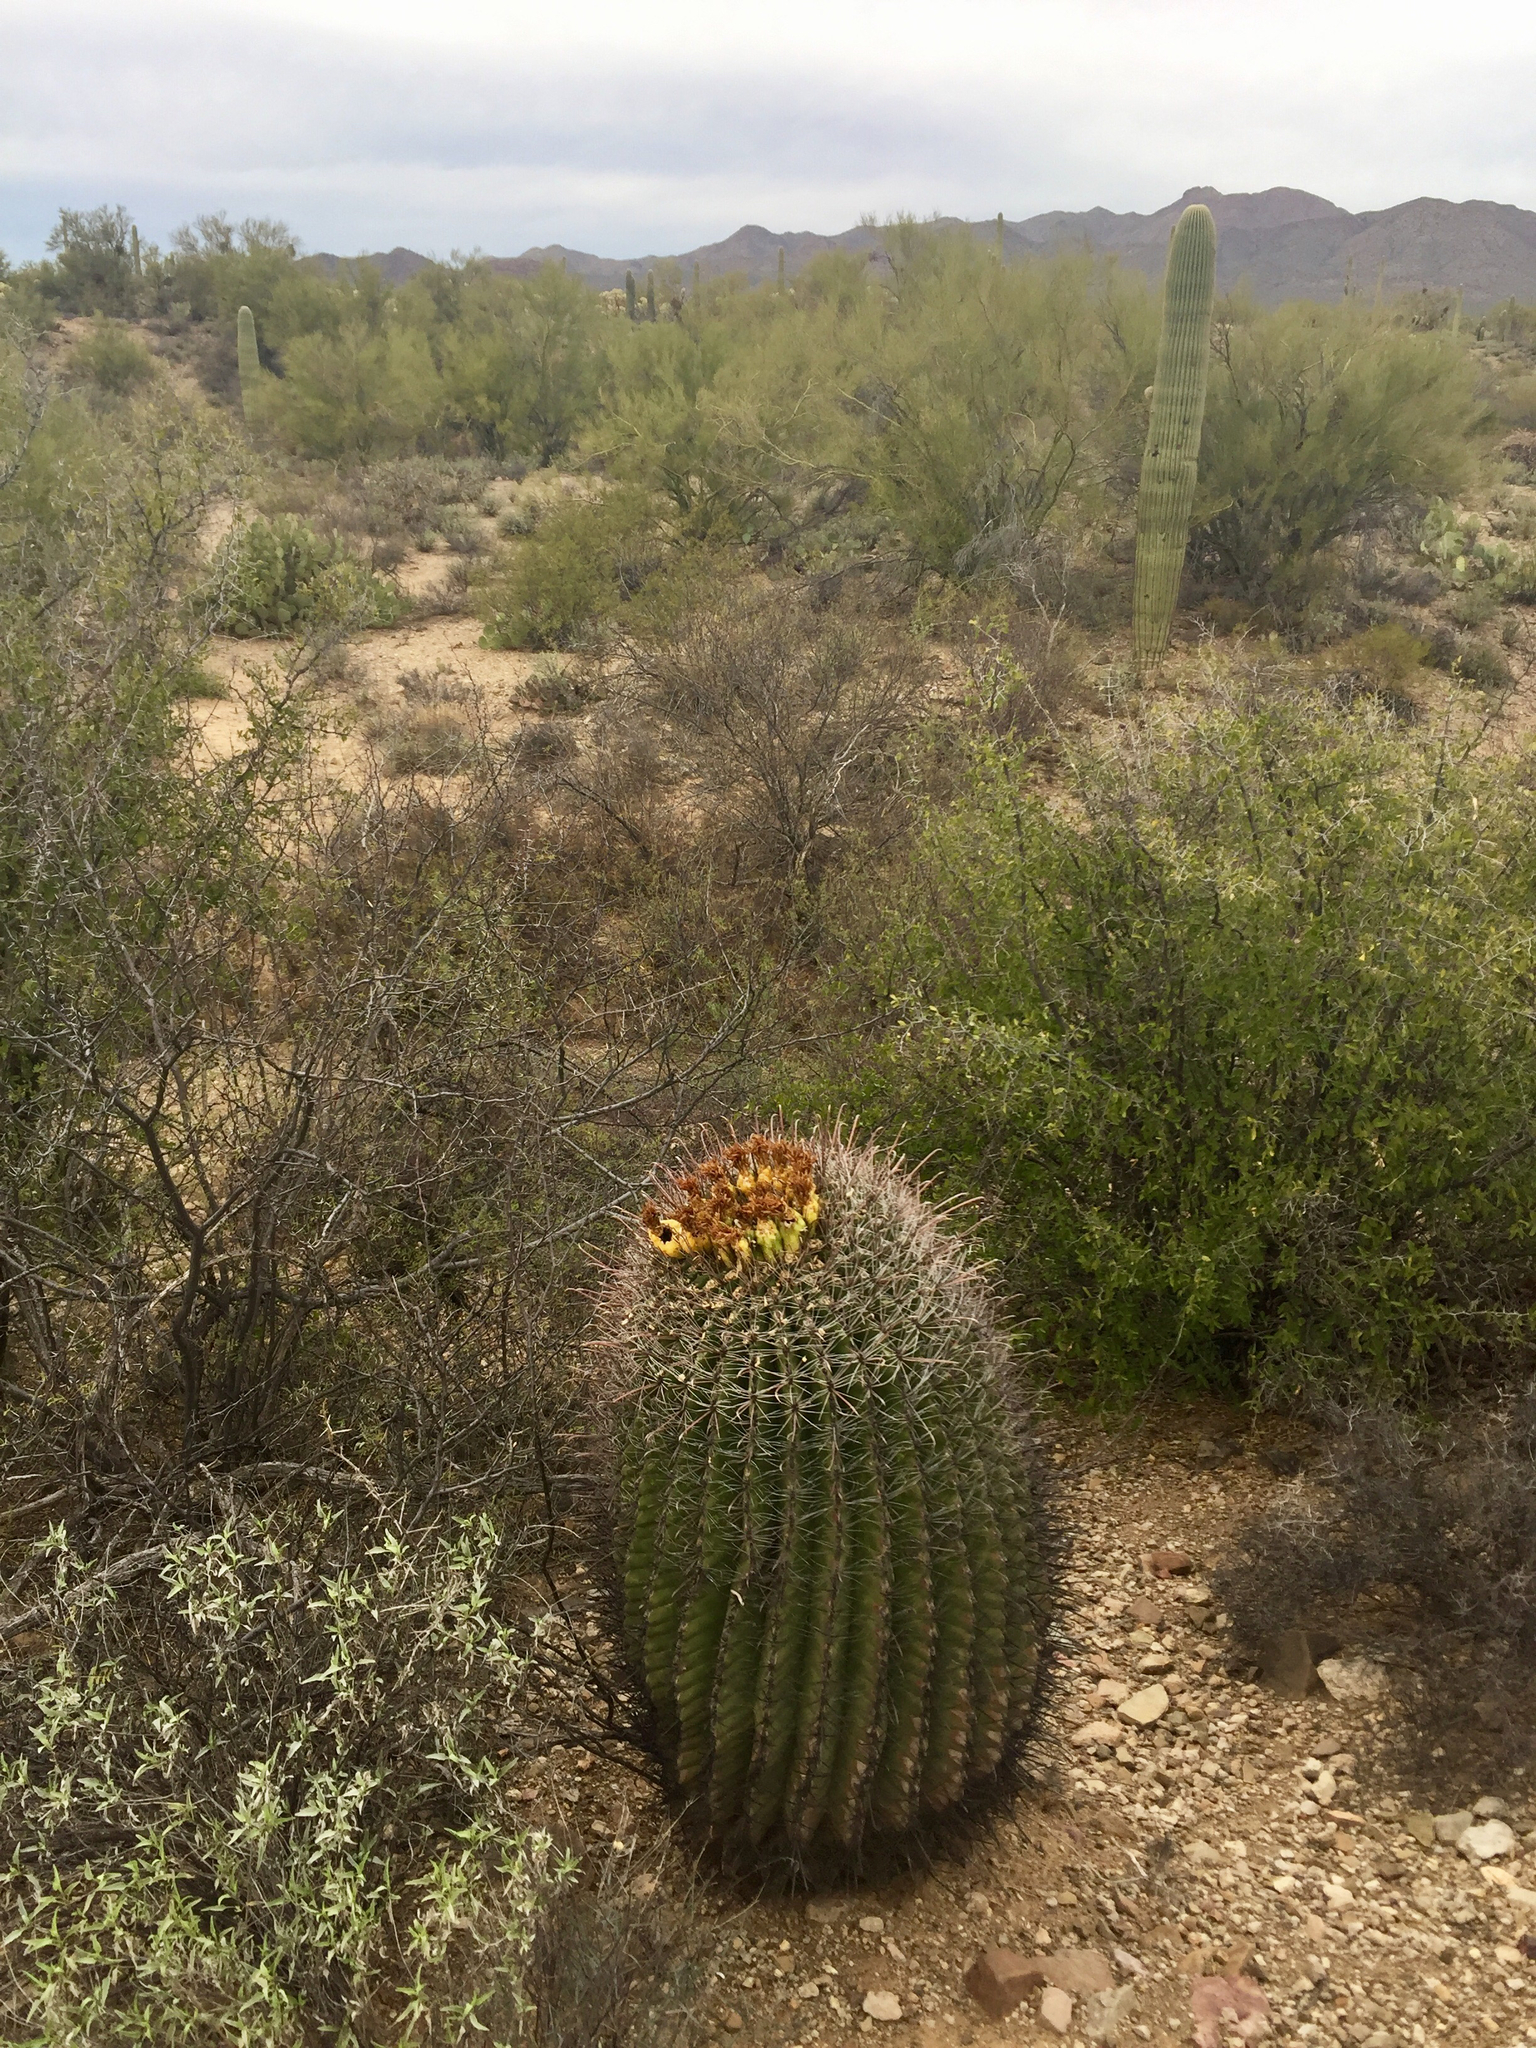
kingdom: Plantae
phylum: Tracheophyta
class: Magnoliopsida
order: Caryophyllales
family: Cactaceae
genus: Ferocactus
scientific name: Ferocactus wislizeni
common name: Candy barrel cactus
